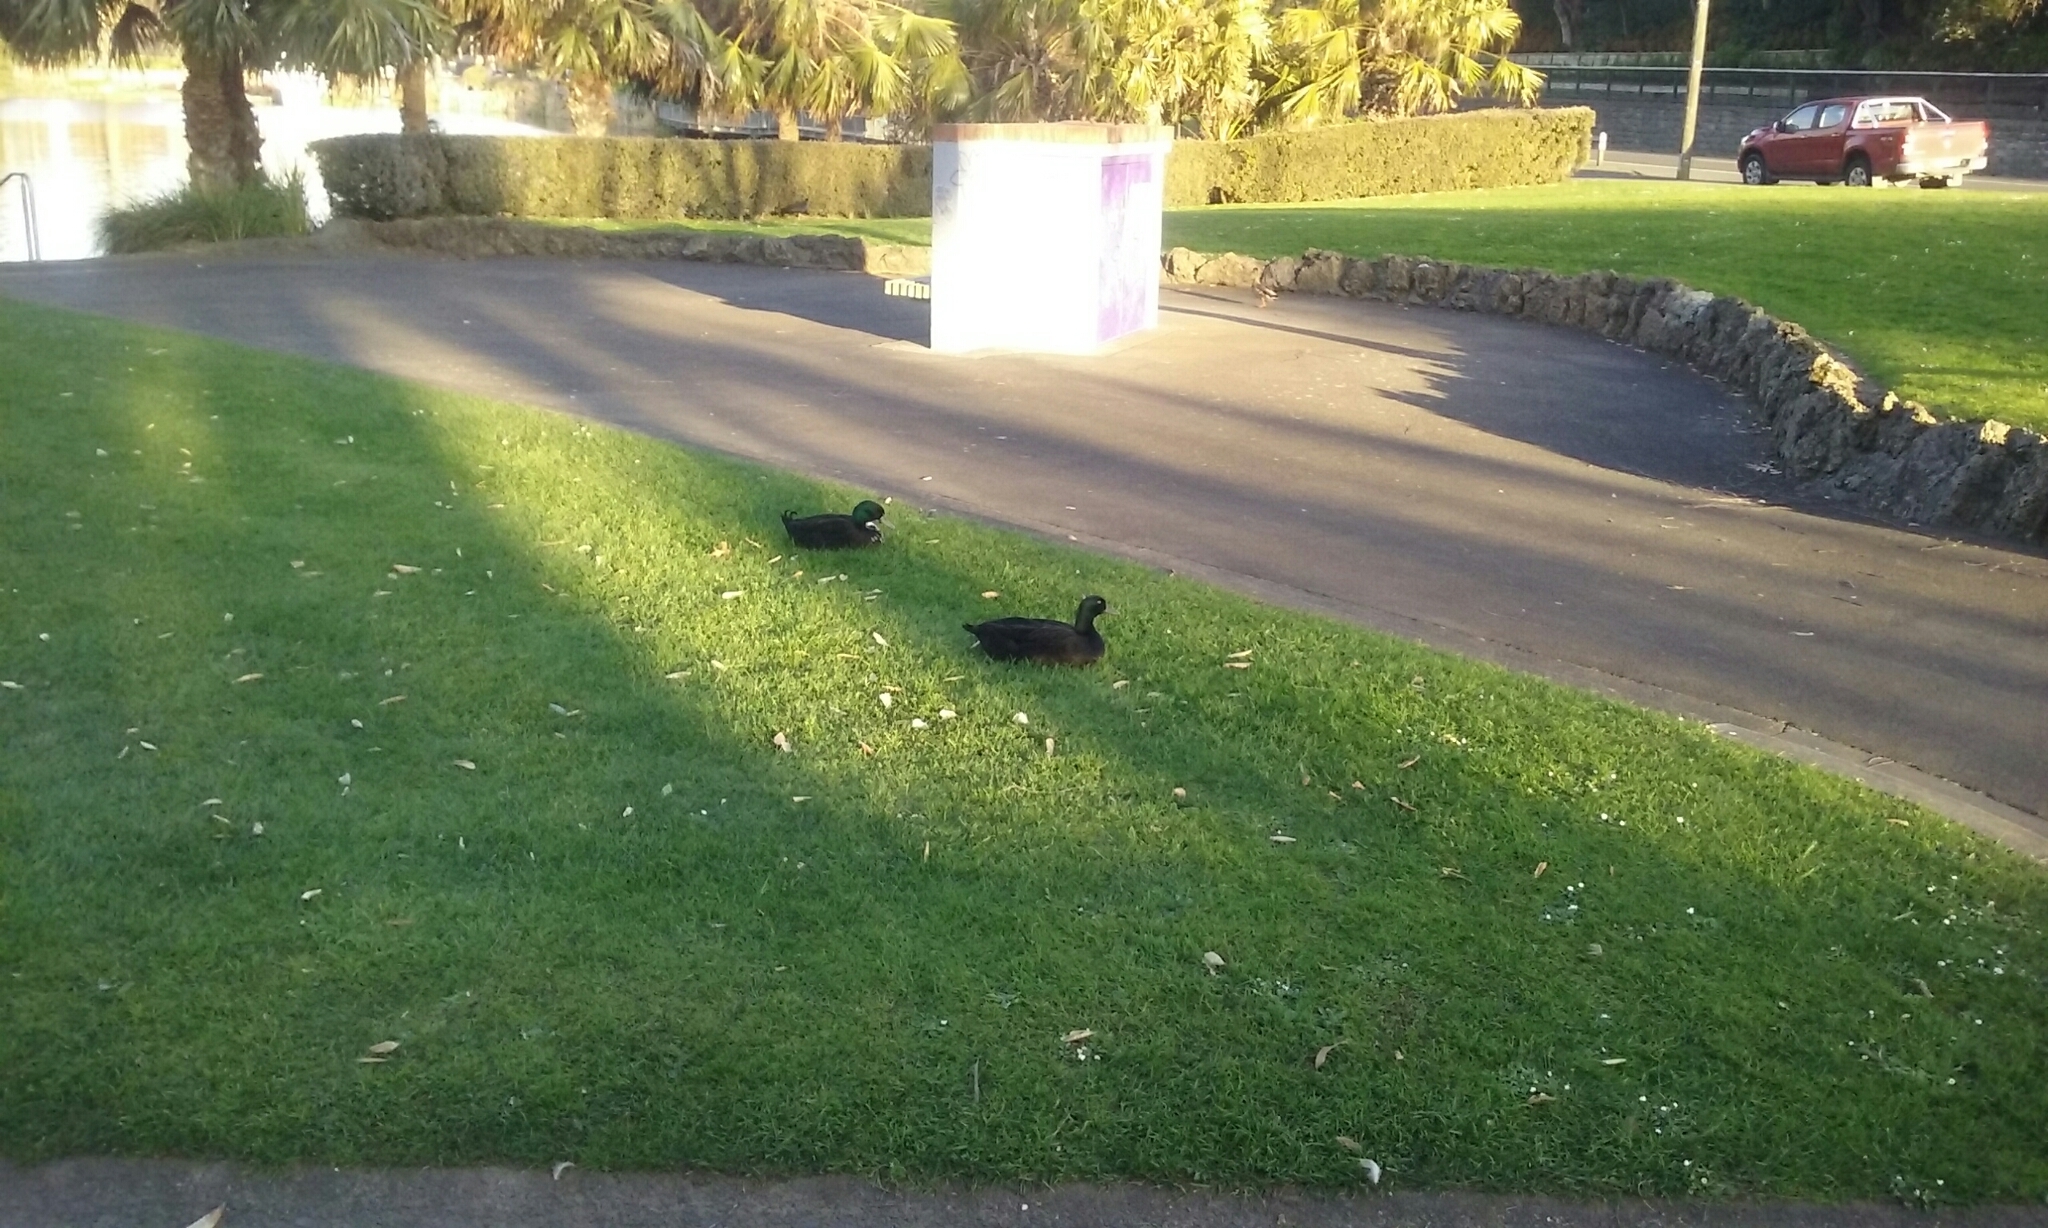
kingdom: Animalia
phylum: Chordata
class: Aves
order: Anseriformes
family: Anatidae
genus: Anas
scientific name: Anas platyrhynchos
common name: Mallard
